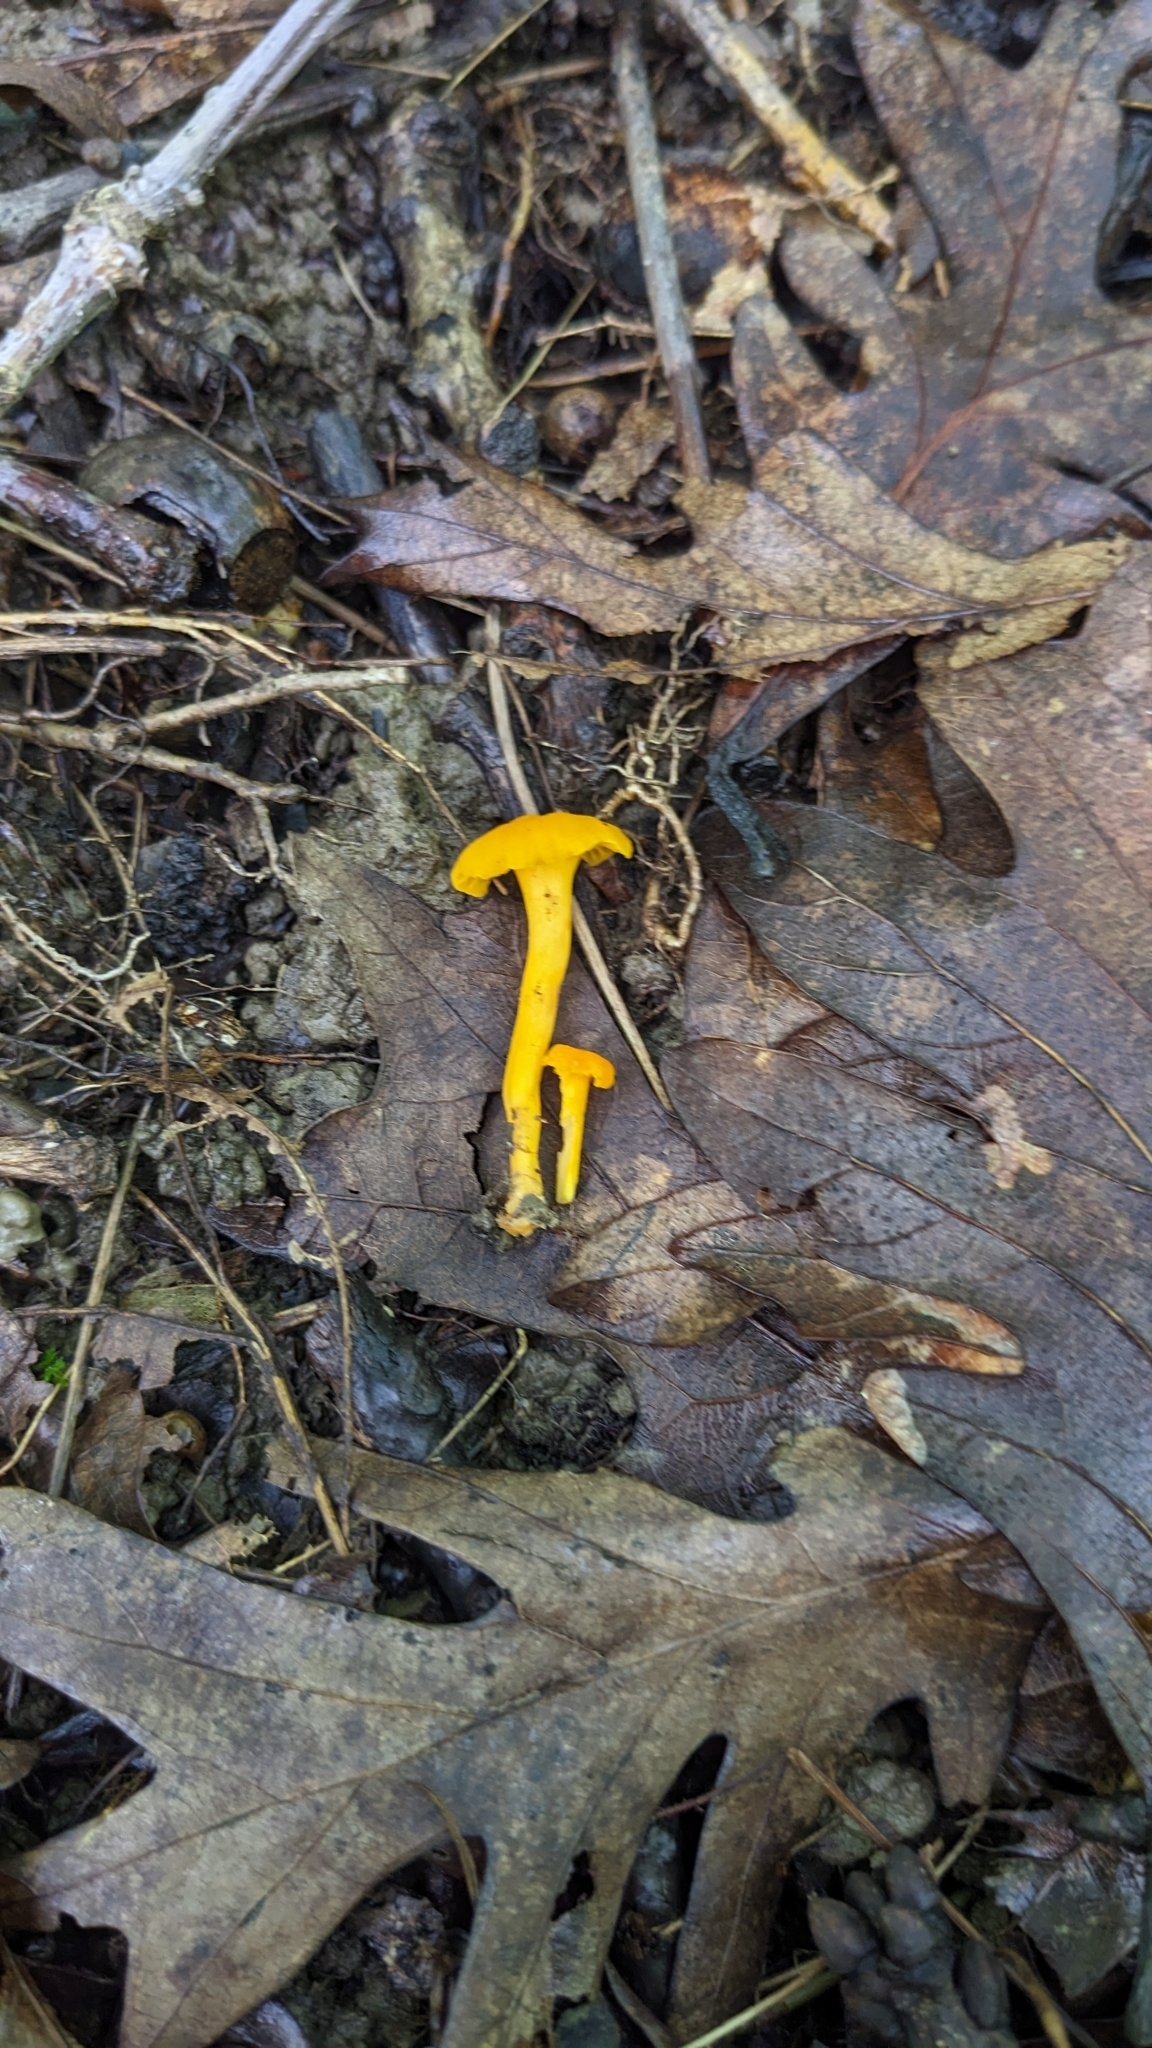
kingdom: Fungi
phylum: Basidiomycota
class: Agaricomycetes
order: Cantharellales
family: Hydnaceae
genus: Cantharellus
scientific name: Cantharellus minor
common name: Small chanterelle
